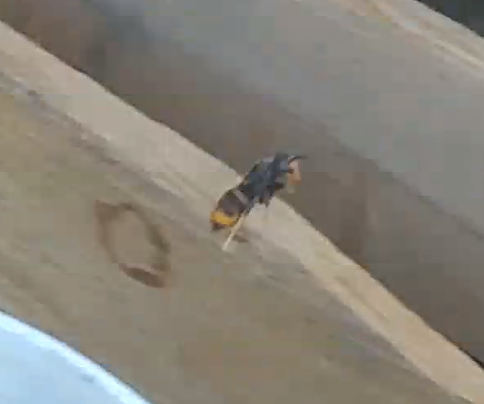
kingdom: Animalia
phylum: Arthropoda
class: Insecta
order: Hymenoptera
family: Vespidae
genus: Vespa
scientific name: Vespa velutina
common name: Asian hornet
